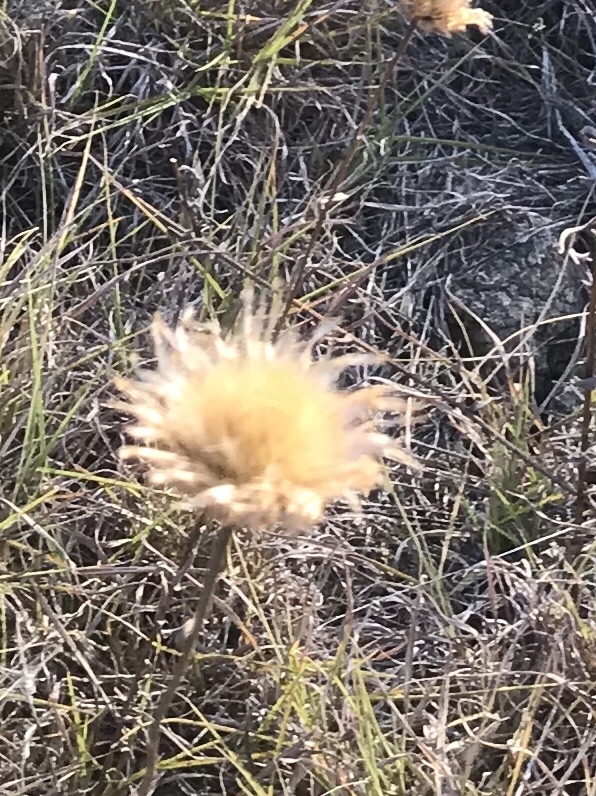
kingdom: Plantae
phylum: Tracheophyta
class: Magnoliopsida
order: Asterales
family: Asteraceae
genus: Plectocephalus
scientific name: Plectocephalus americanus
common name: American basket-flower
